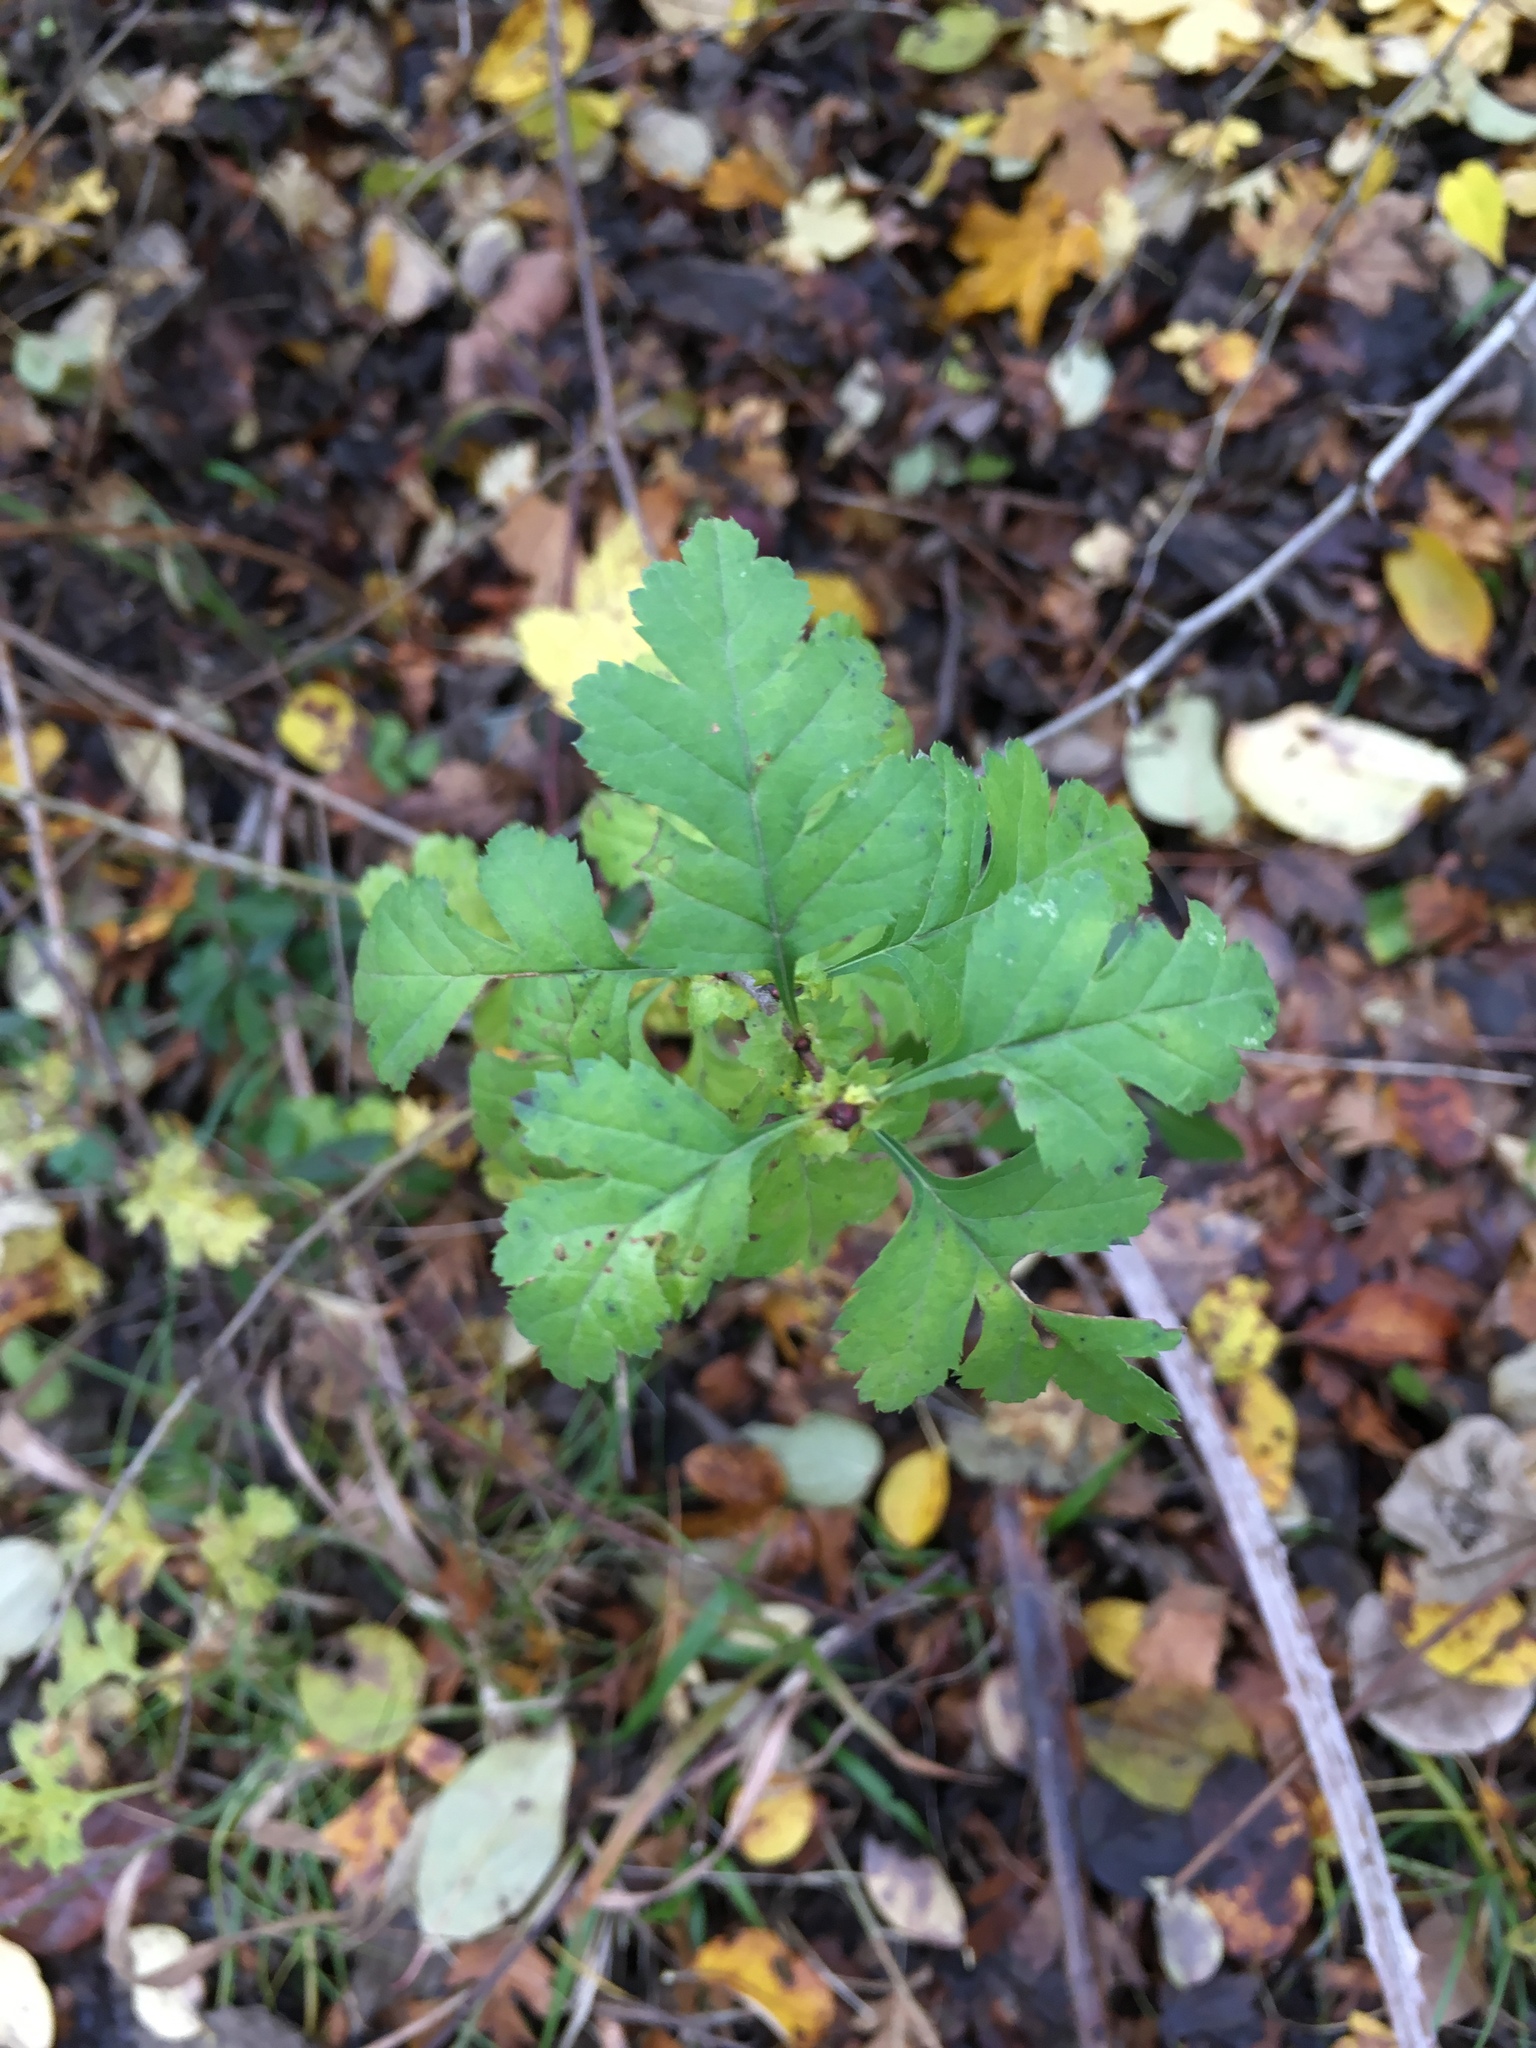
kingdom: Plantae
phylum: Tracheophyta
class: Magnoliopsida
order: Rosales
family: Rosaceae
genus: Crataegus
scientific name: Crataegus monogyna
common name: Hawthorn
